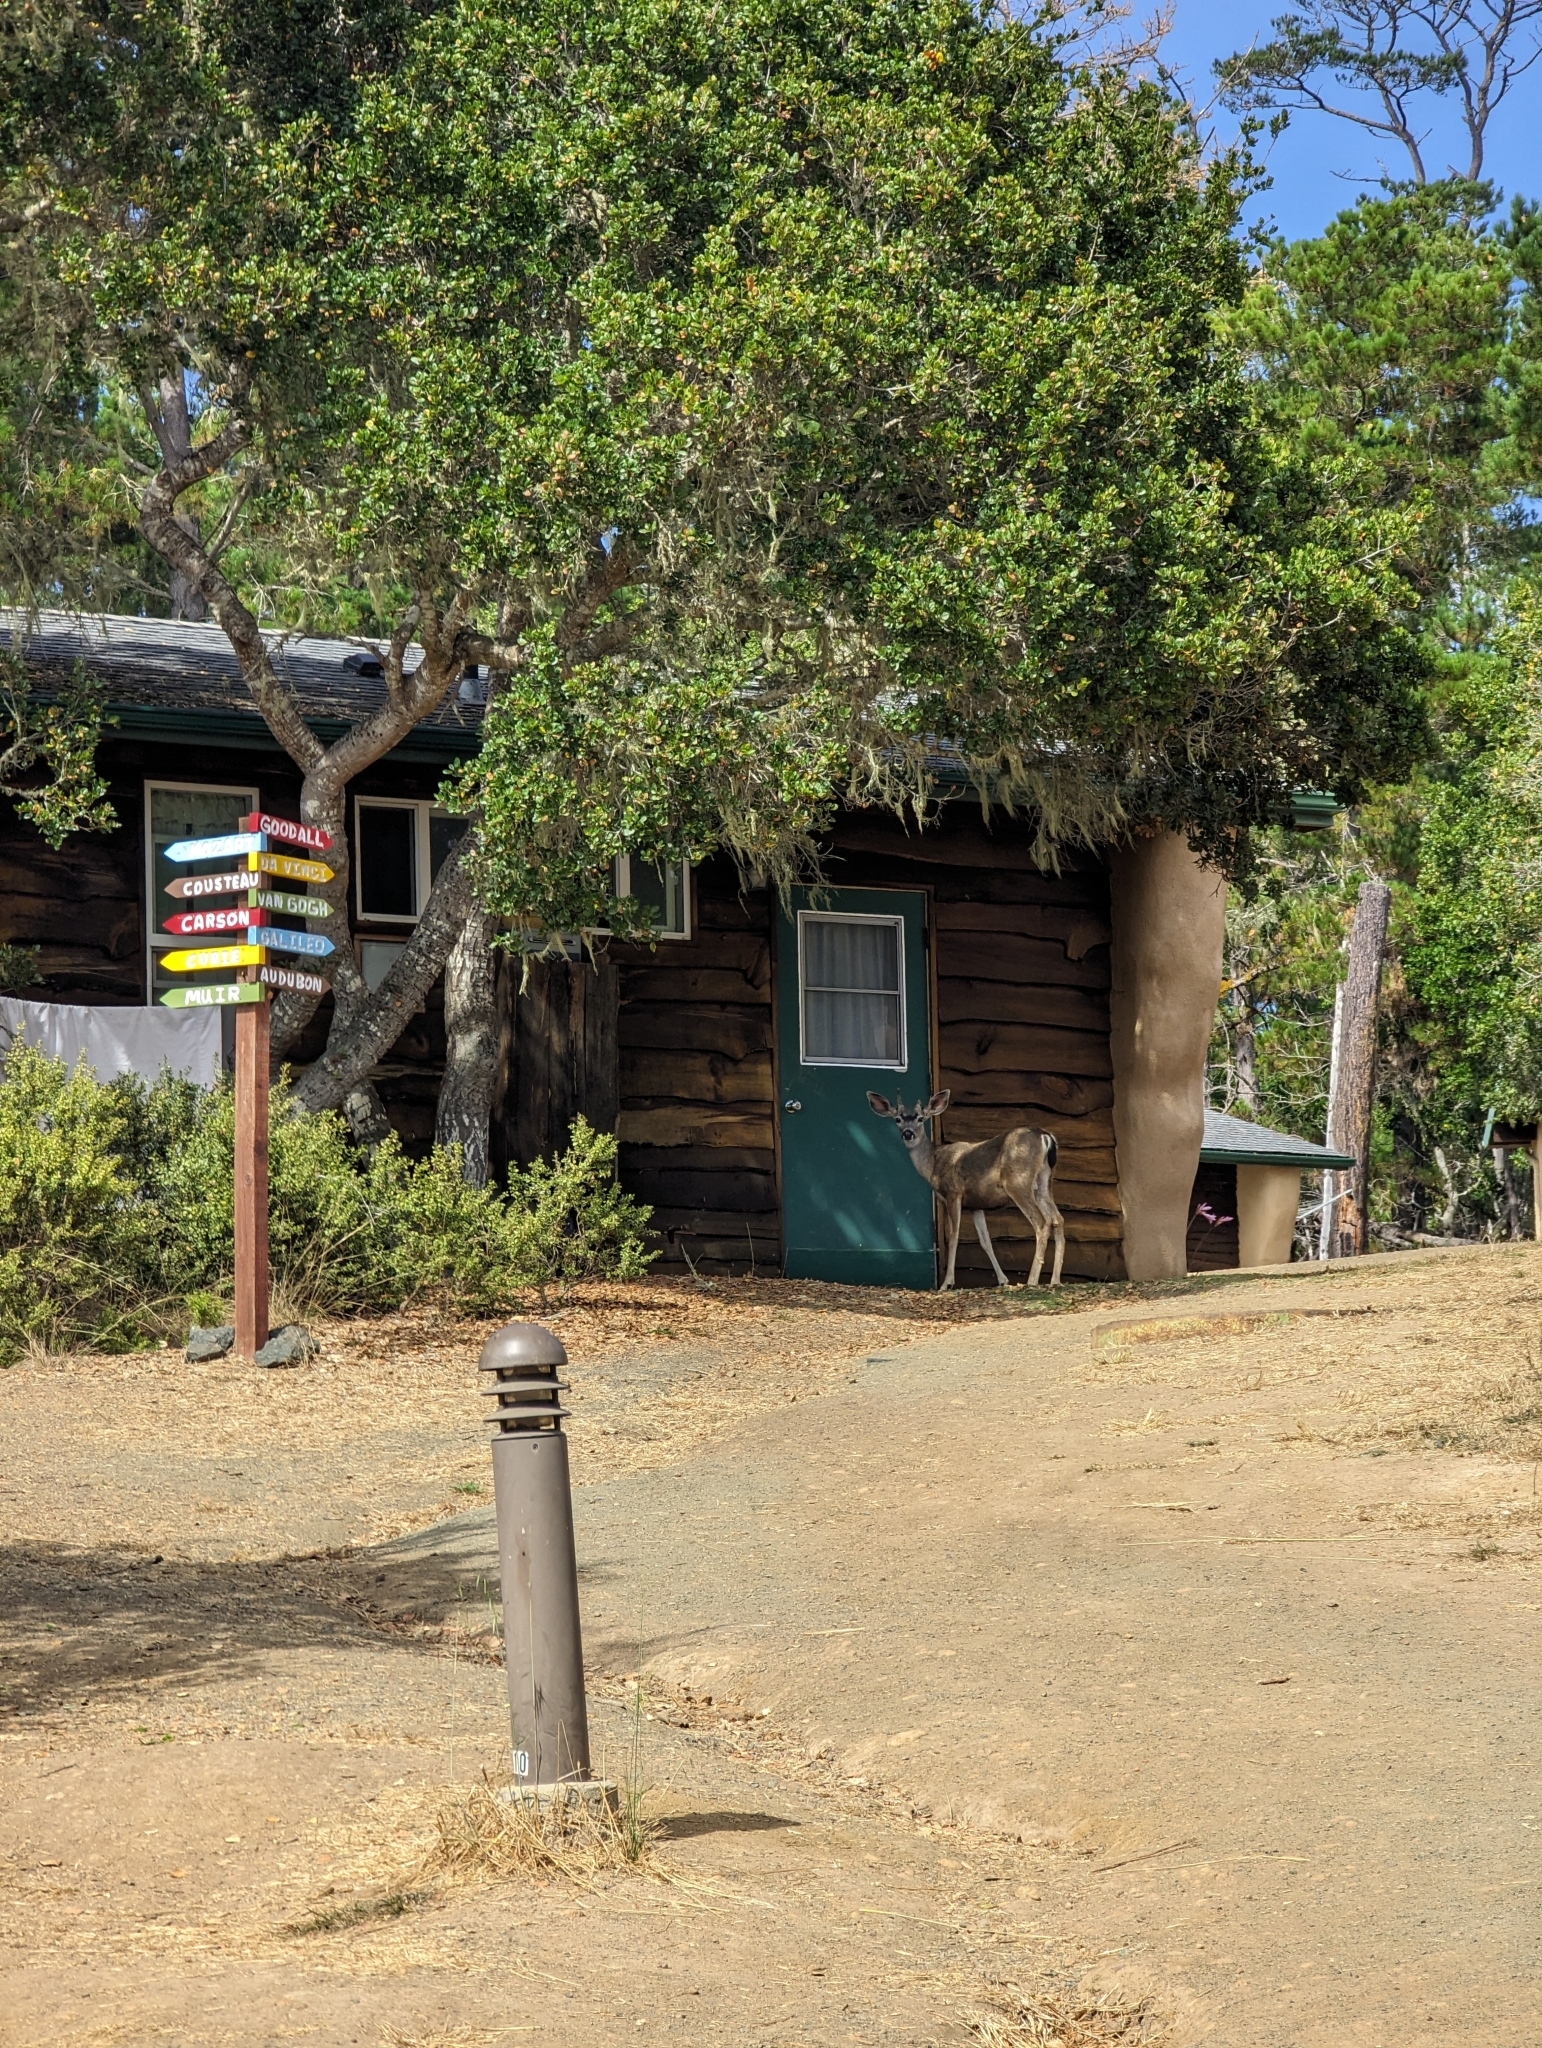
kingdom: Animalia
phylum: Chordata
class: Mammalia
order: Artiodactyla
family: Cervidae
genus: Odocoileus
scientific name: Odocoileus hemionus
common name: Mule deer
